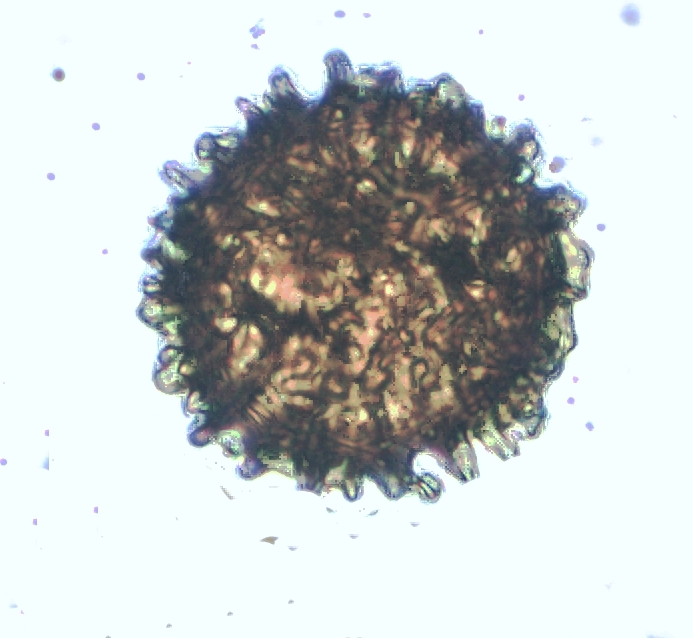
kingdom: Plantae
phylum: Marchantiophyta
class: Jungermanniopsida
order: Fossombroniales
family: Fossombroniaceae
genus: Fossombronia
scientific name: Fossombronia pusilla
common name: Common frillwort
